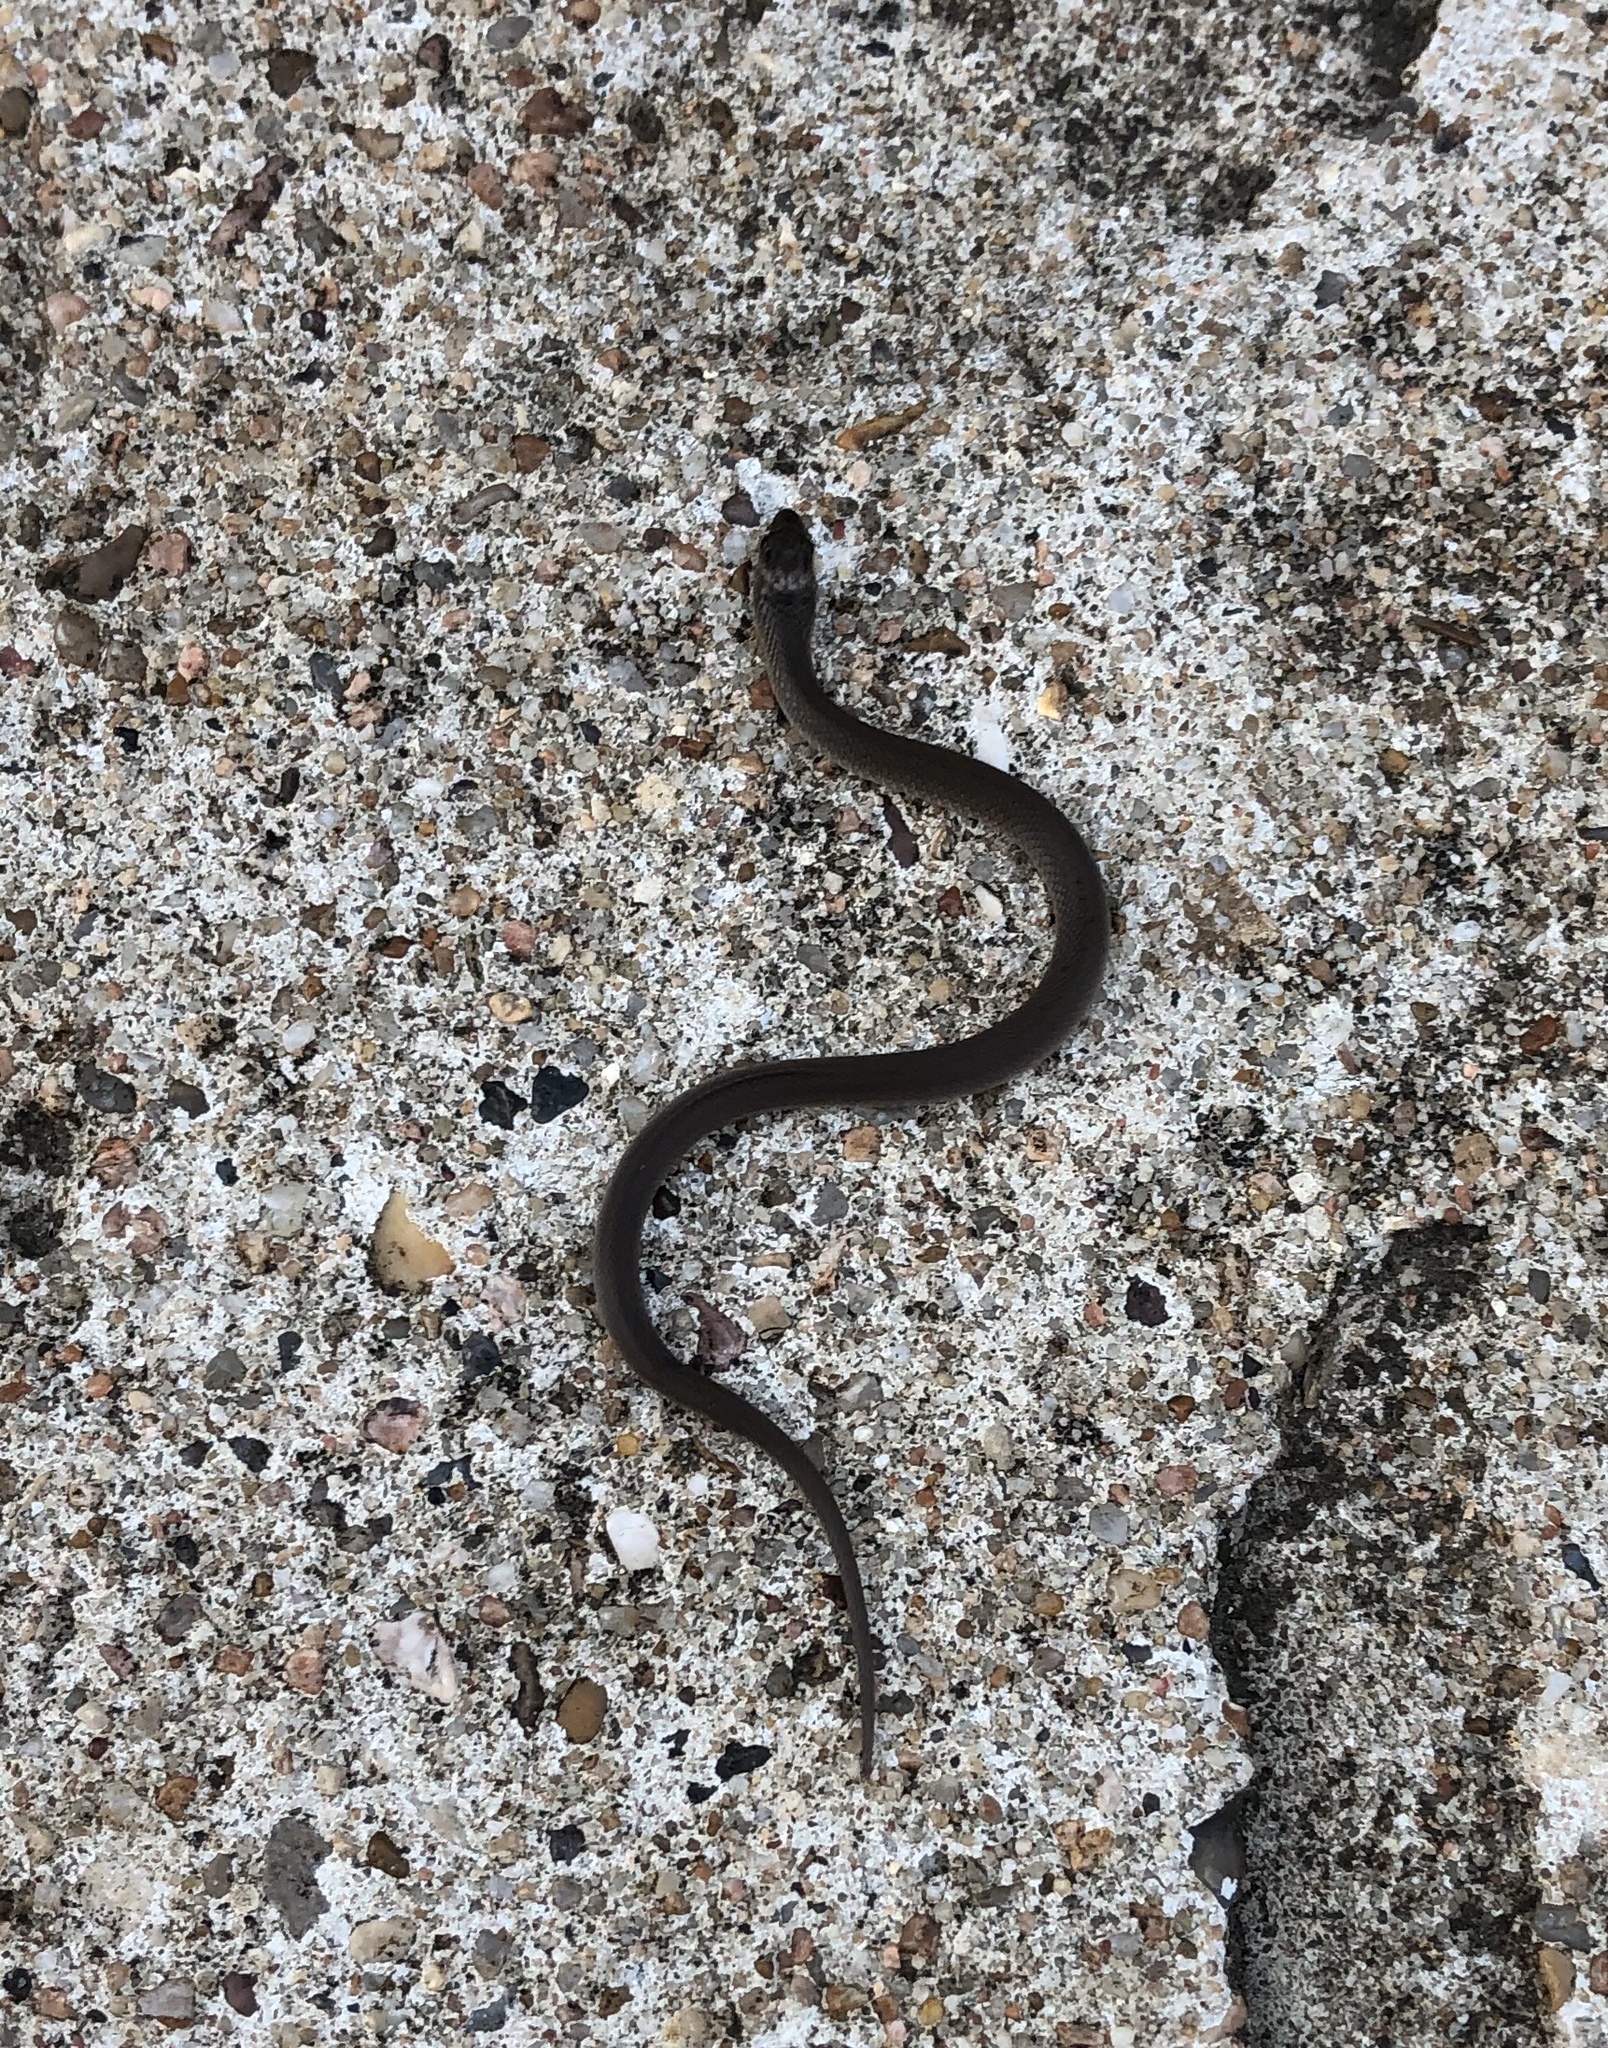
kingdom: Animalia
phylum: Chordata
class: Squamata
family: Colubridae
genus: Haldea
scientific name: Haldea striatula
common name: Rough earth snake
